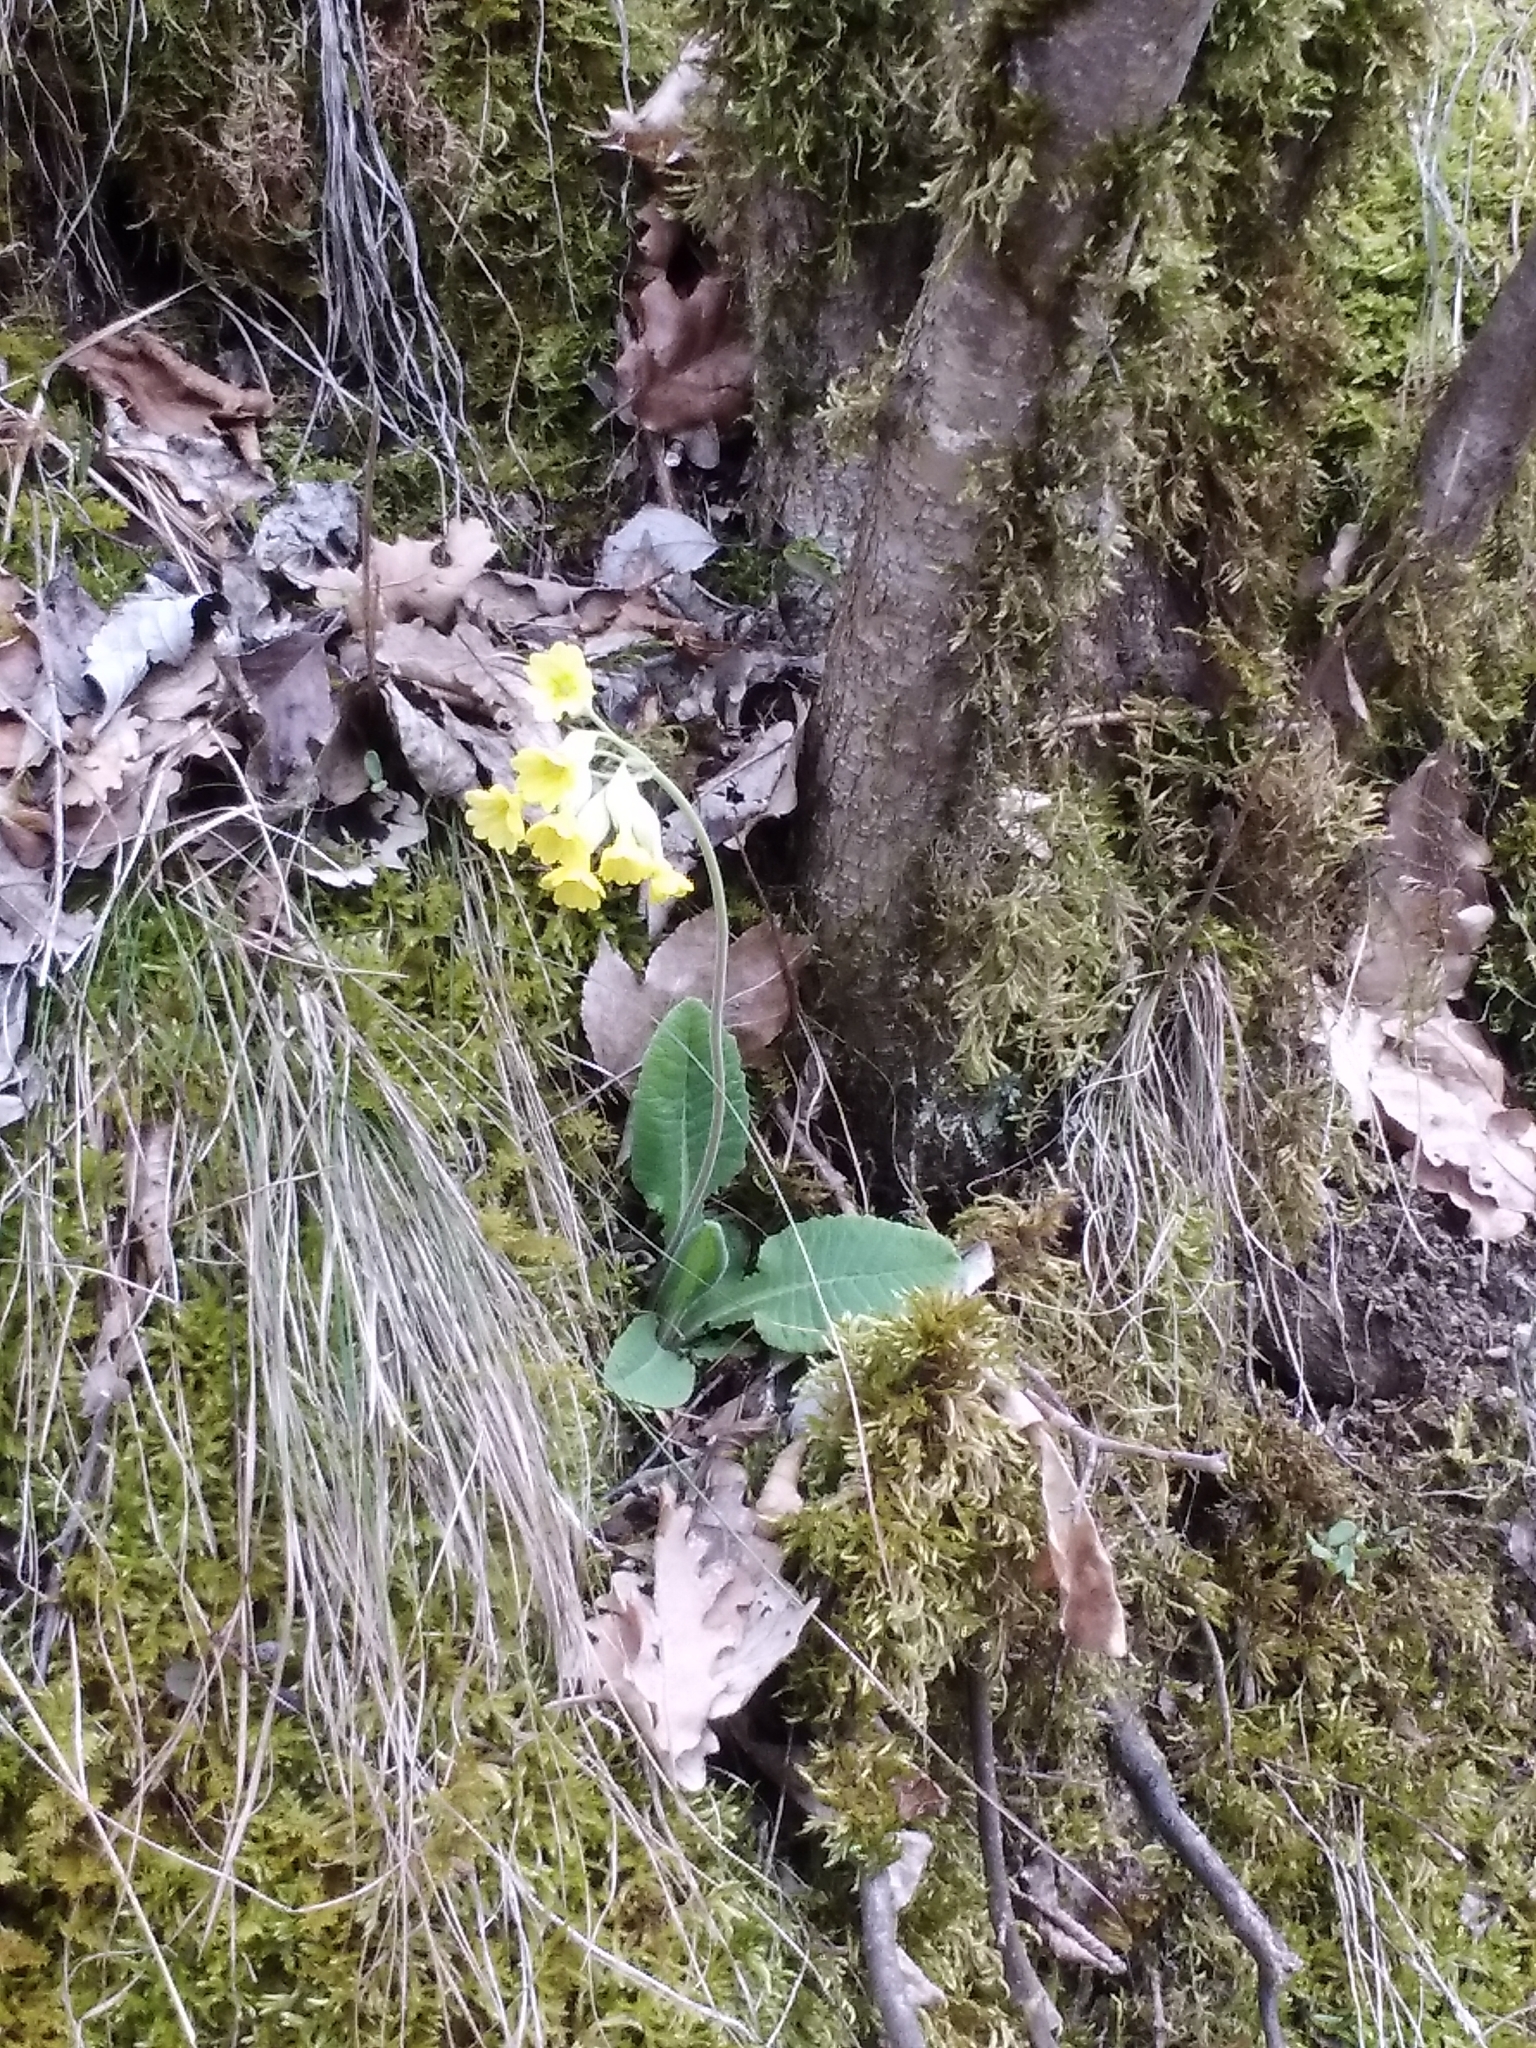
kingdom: Plantae
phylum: Tracheophyta
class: Magnoliopsida
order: Ericales
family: Primulaceae
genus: Primula
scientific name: Primula veris
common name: Cowslip
